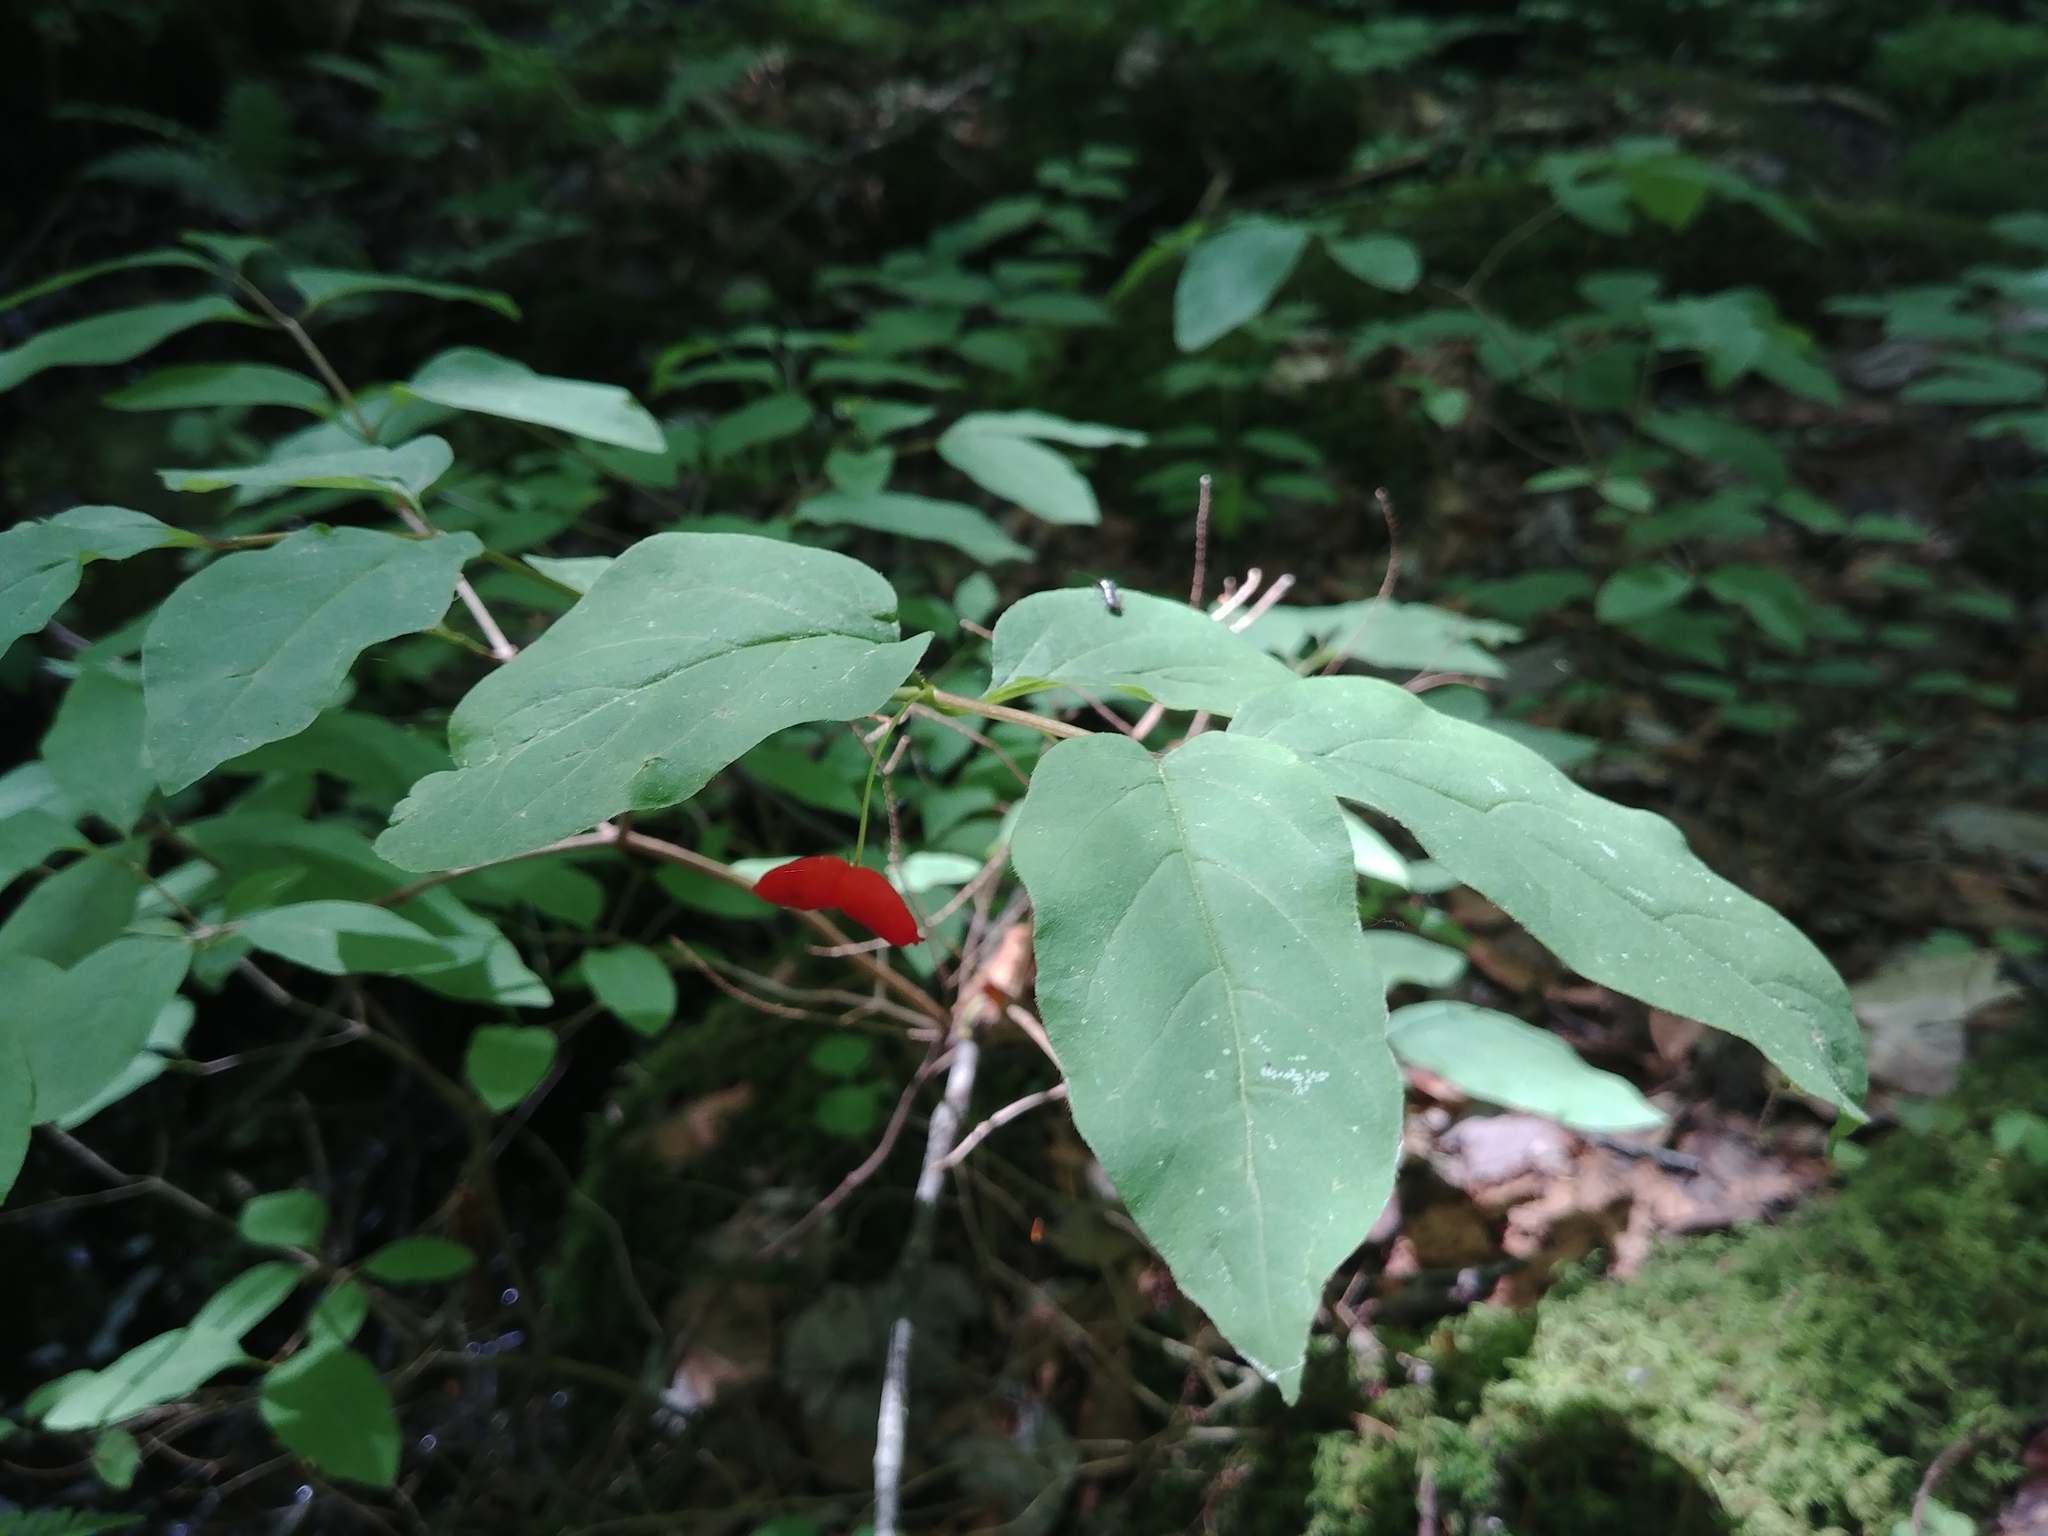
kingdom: Plantae
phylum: Tracheophyta
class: Magnoliopsida
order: Dipsacales
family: Caprifoliaceae
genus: Lonicera
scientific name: Lonicera canadensis
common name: American fly-honeysuckle
